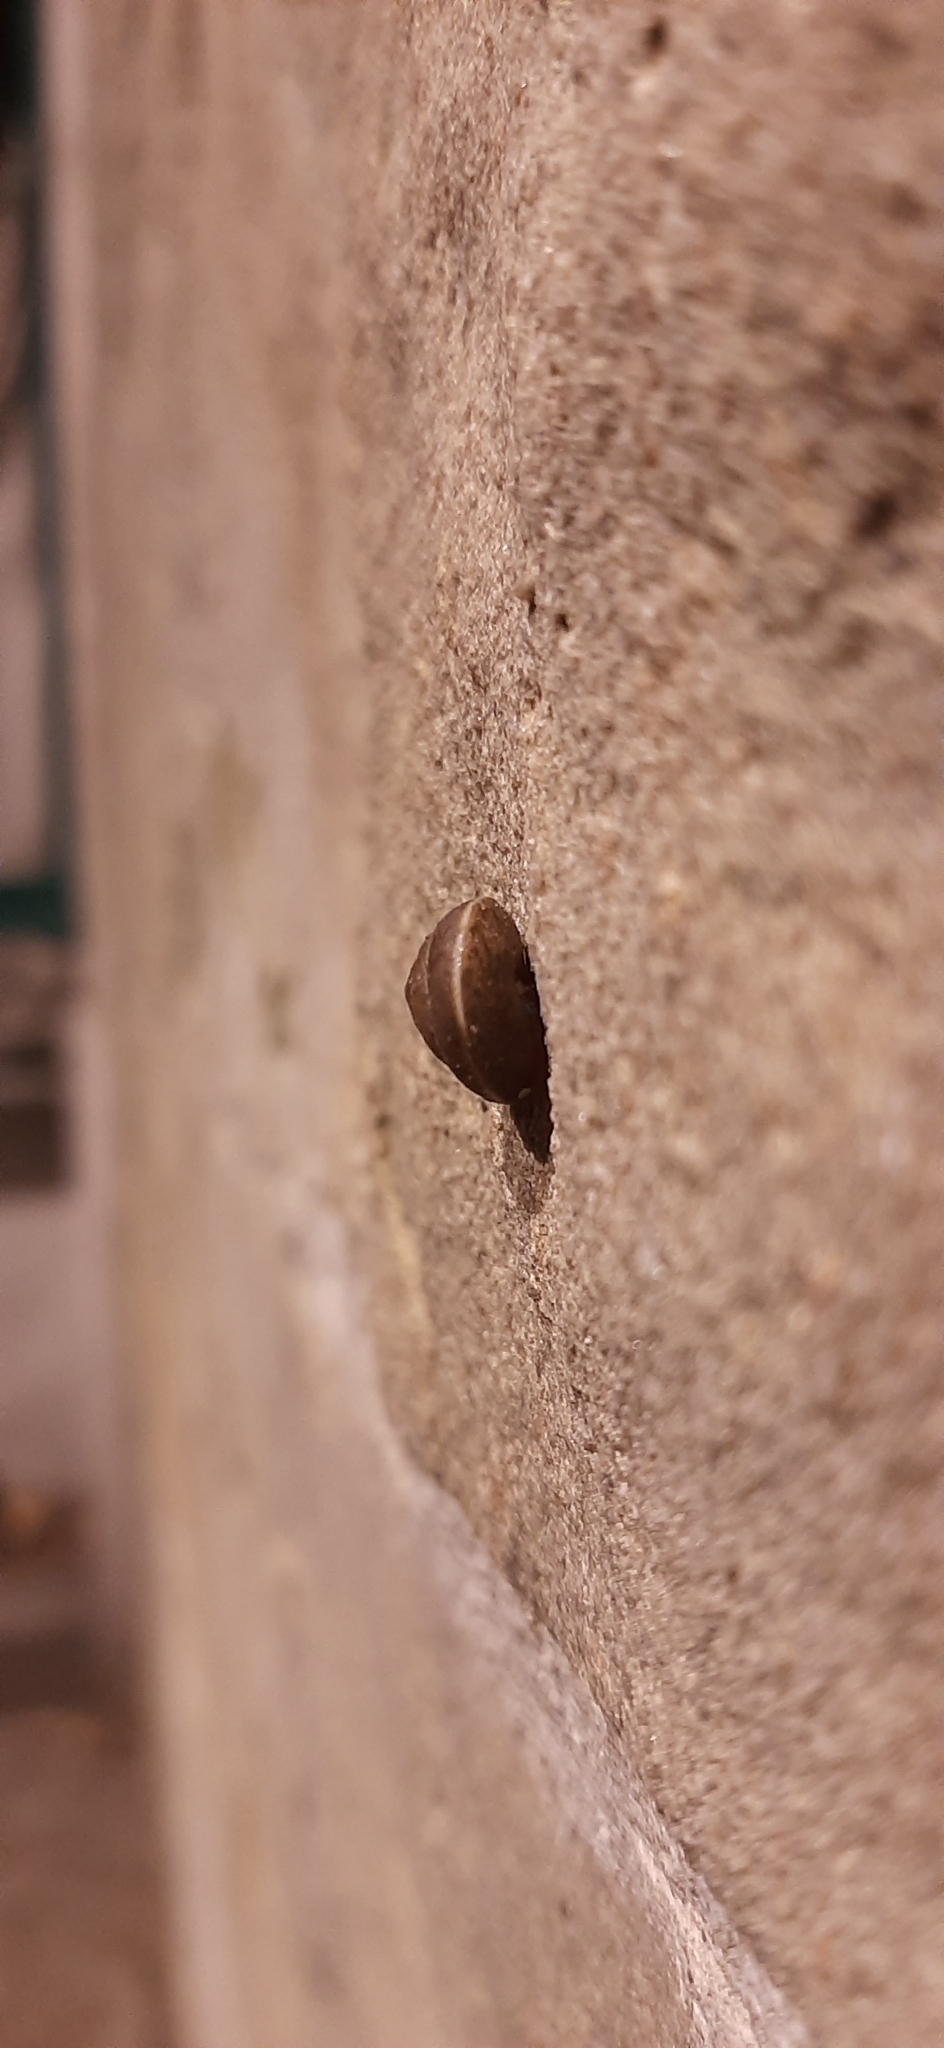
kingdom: Animalia
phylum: Mollusca
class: Gastropoda
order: Stylommatophora
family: Hygromiidae
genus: Hygromia
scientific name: Hygromia cinctella
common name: Girdled snail
